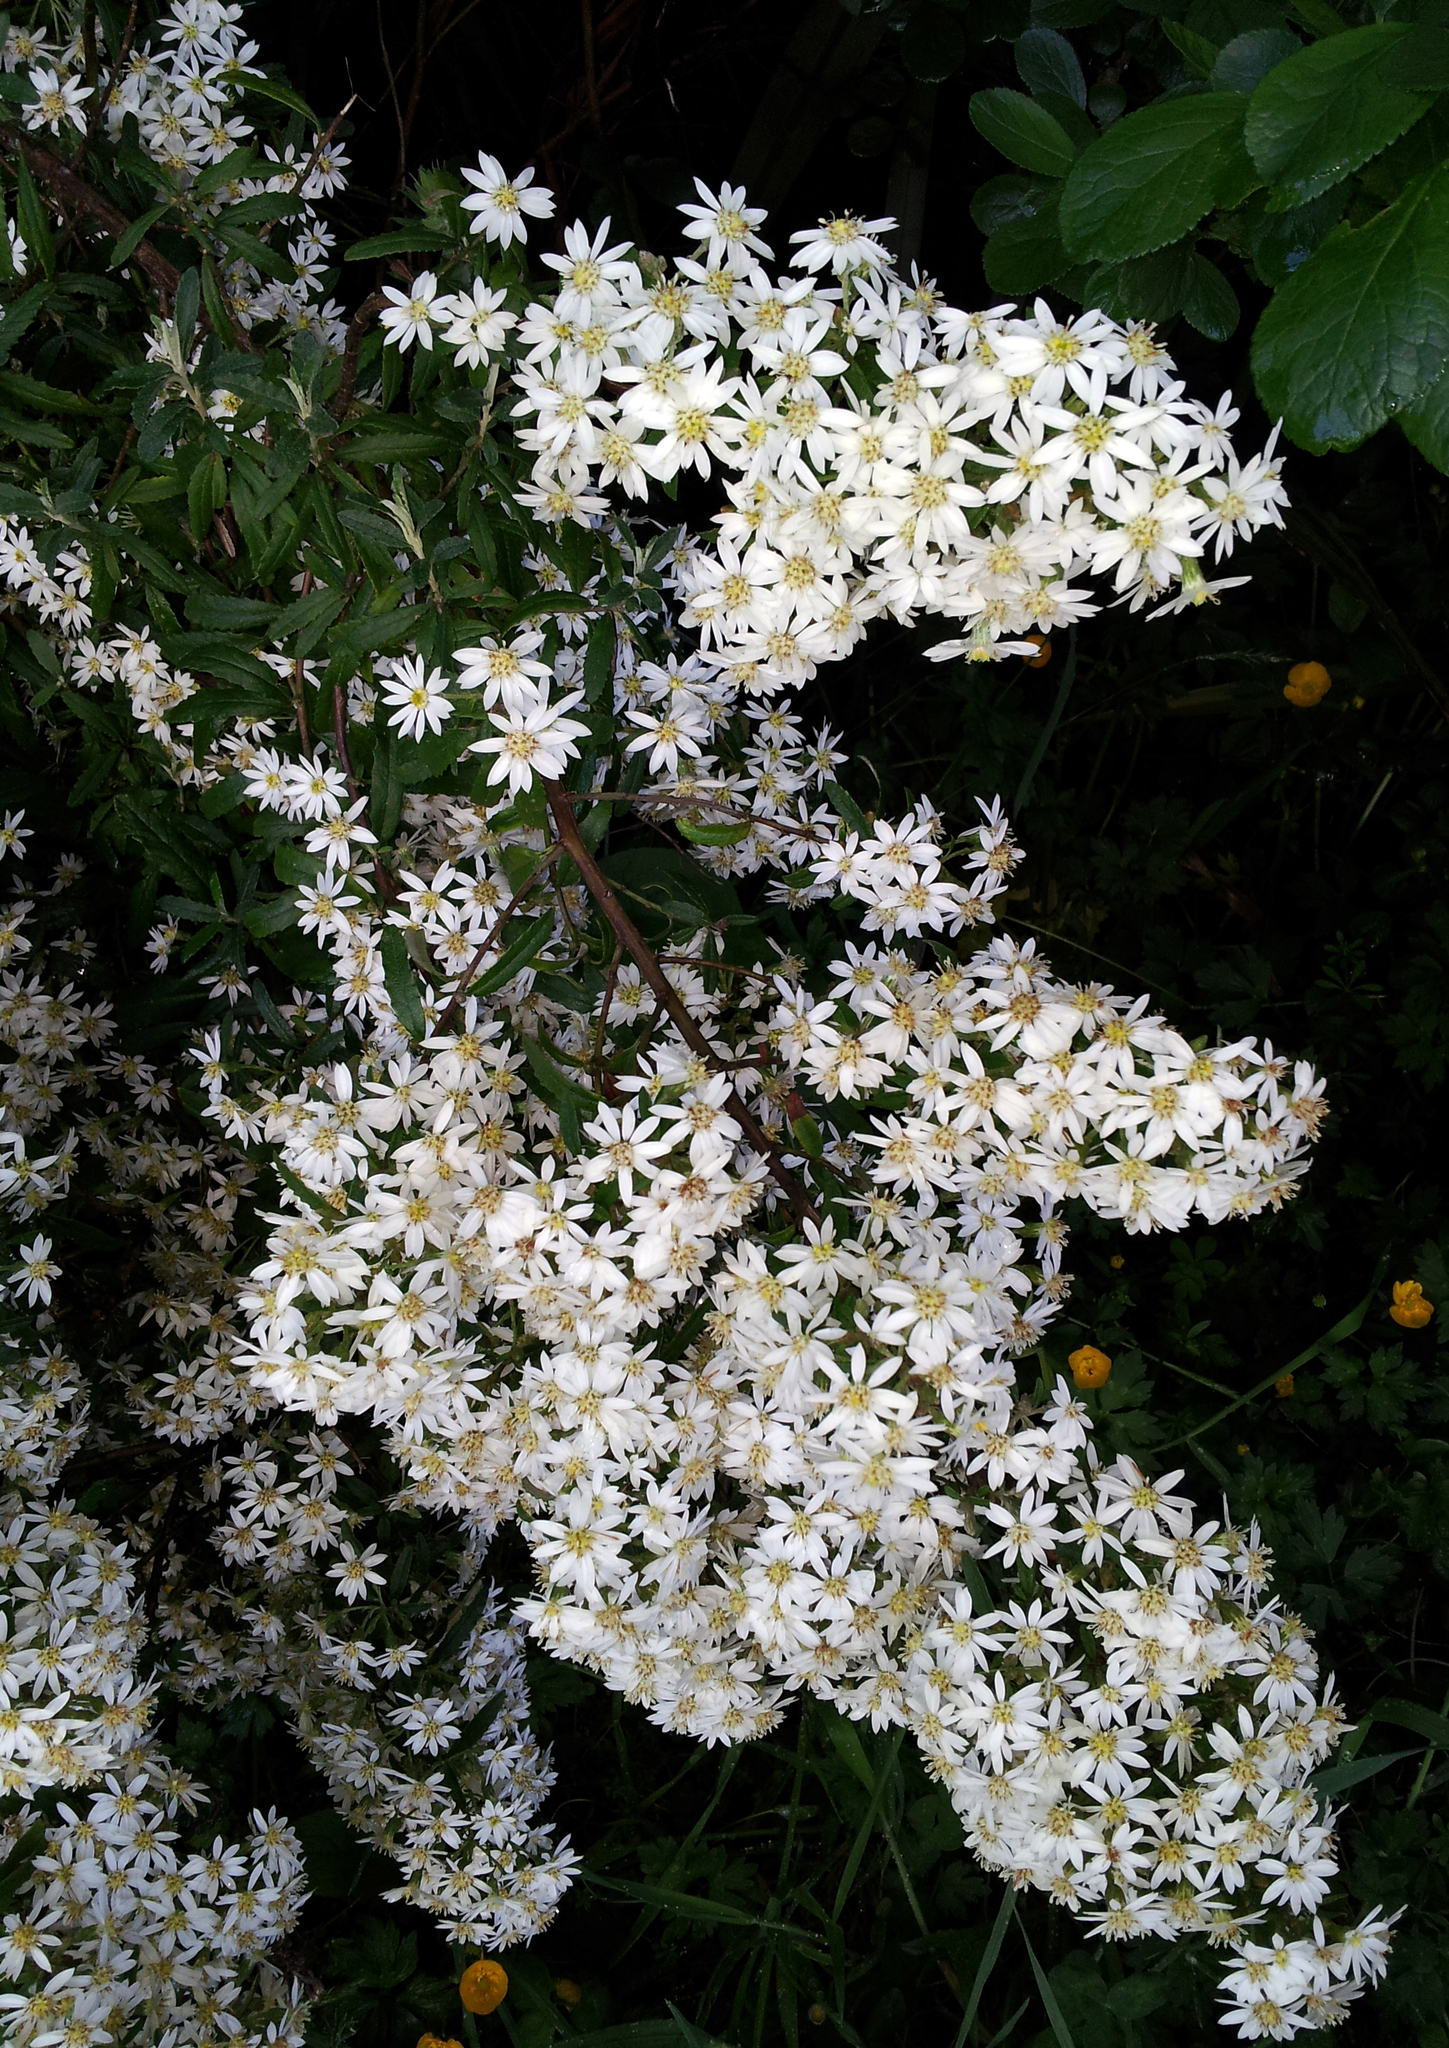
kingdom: Plantae
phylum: Tracheophyta
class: Magnoliopsida
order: Asterales
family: Asteraceae
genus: Olearia
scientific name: Olearia phlogopappa
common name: Alpine daisybush
